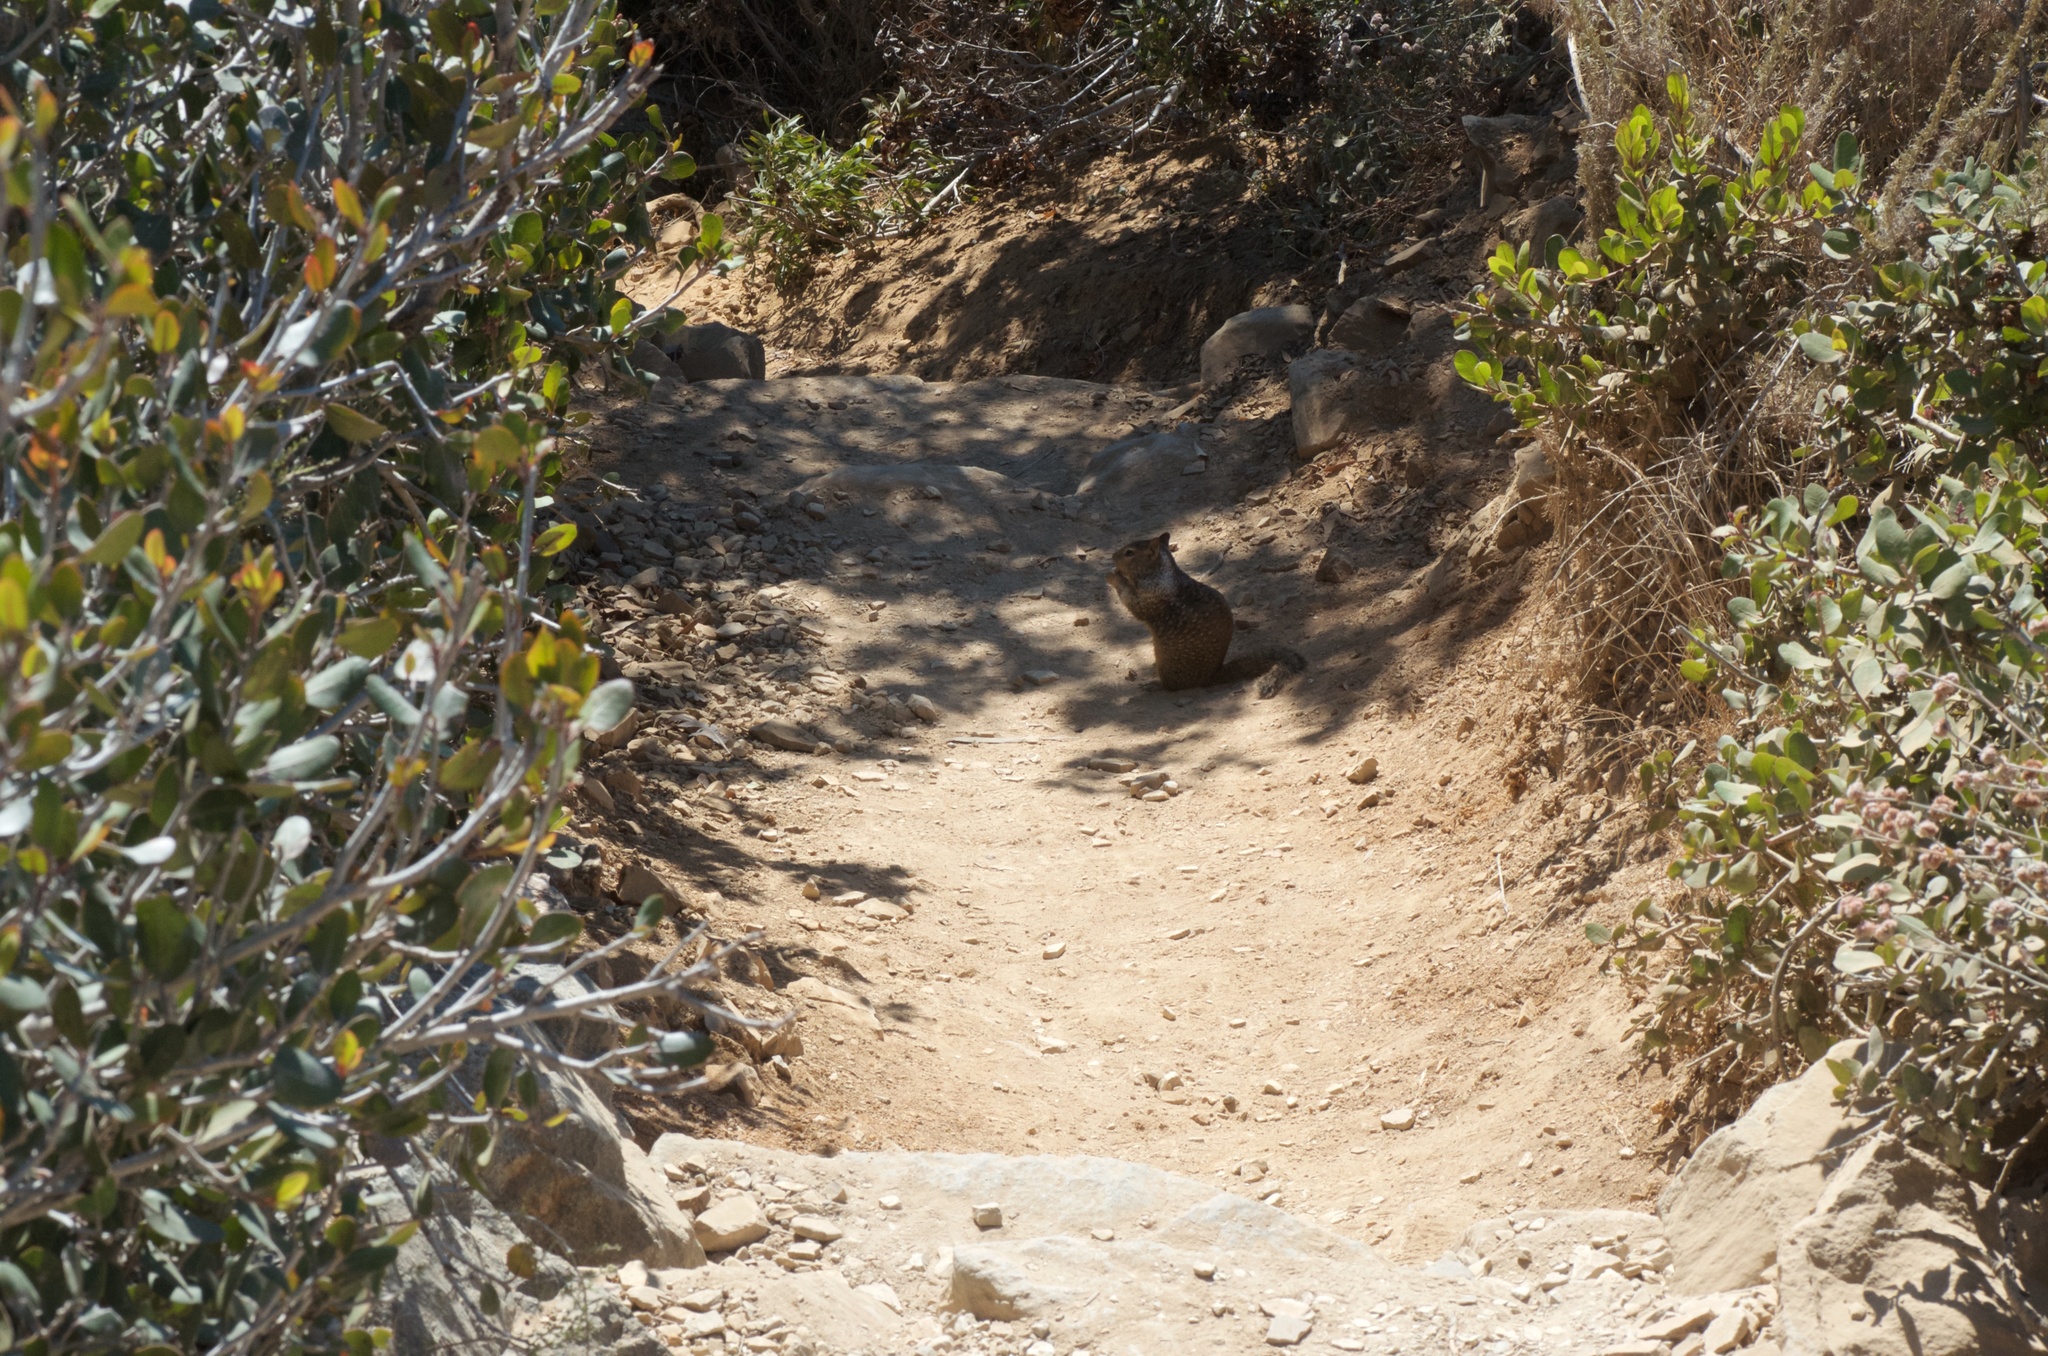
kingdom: Animalia
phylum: Chordata
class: Mammalia
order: Rodentia
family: Sciuridae
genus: Otospermophilus
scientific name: Otospermophilus beecheyi
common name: California ground squirrel
